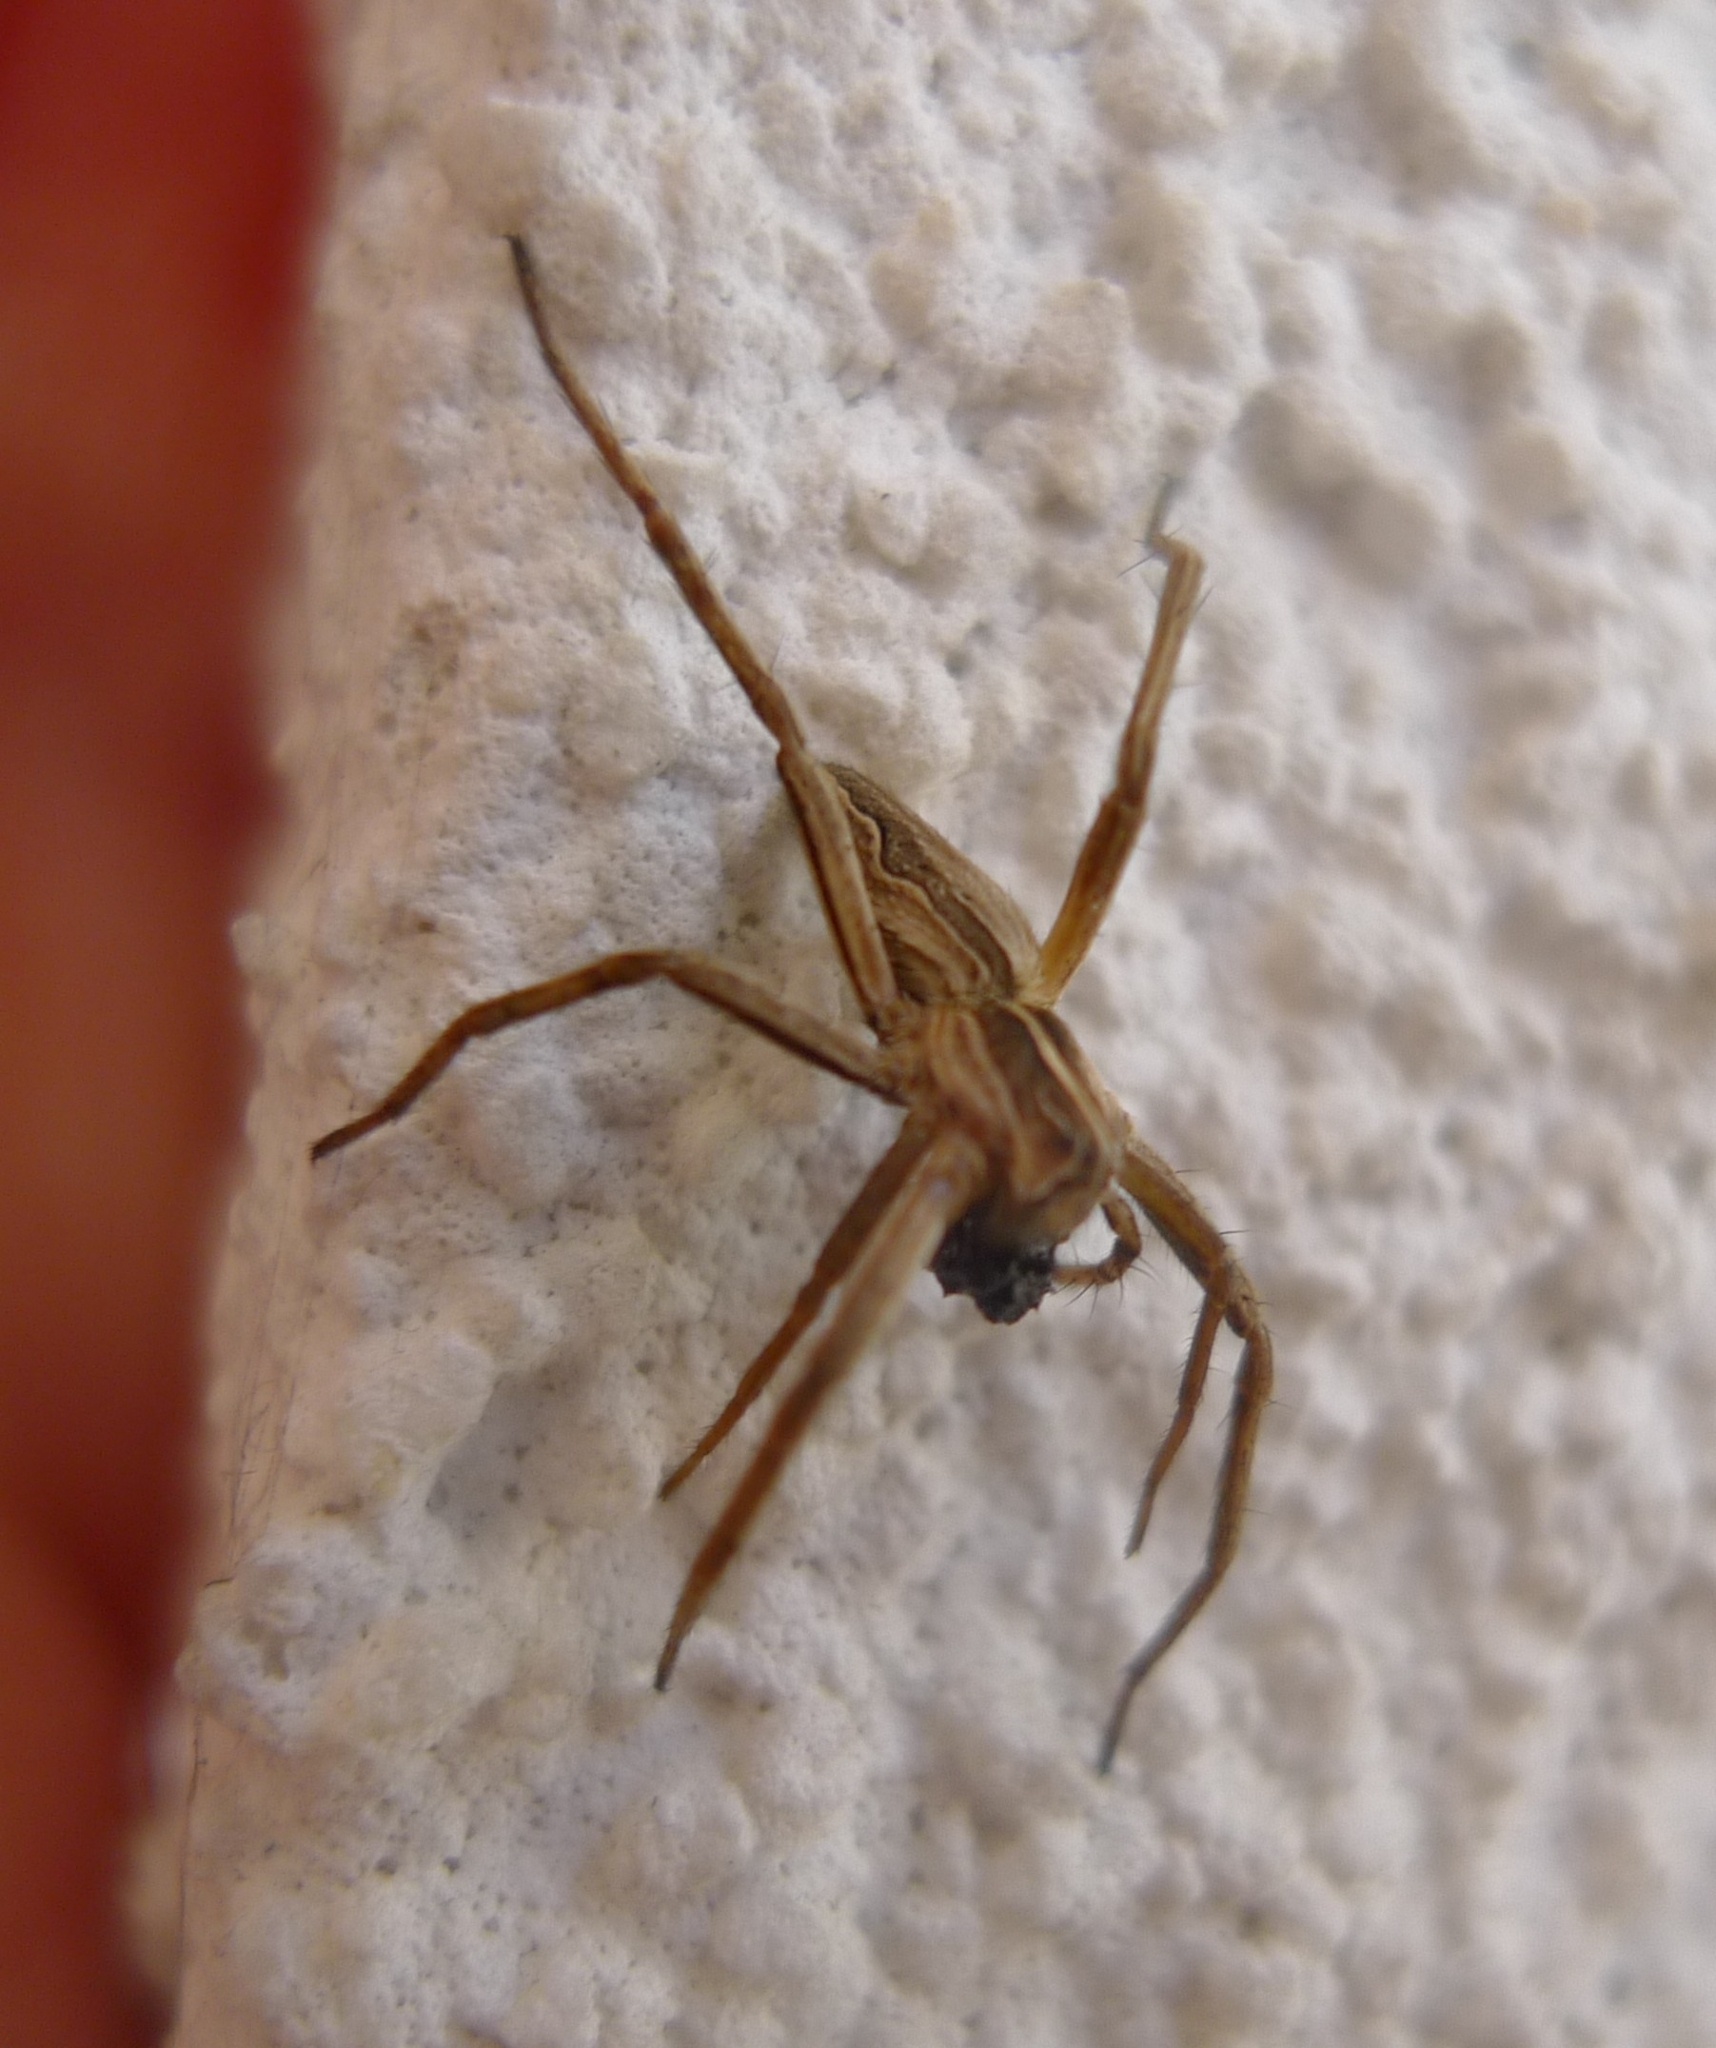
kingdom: Animalia
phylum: Arthropoda
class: Arachnida
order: Araneae
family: Pisauridae
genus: Pisaura
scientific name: Pisaura mirabilis
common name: Tent spider
